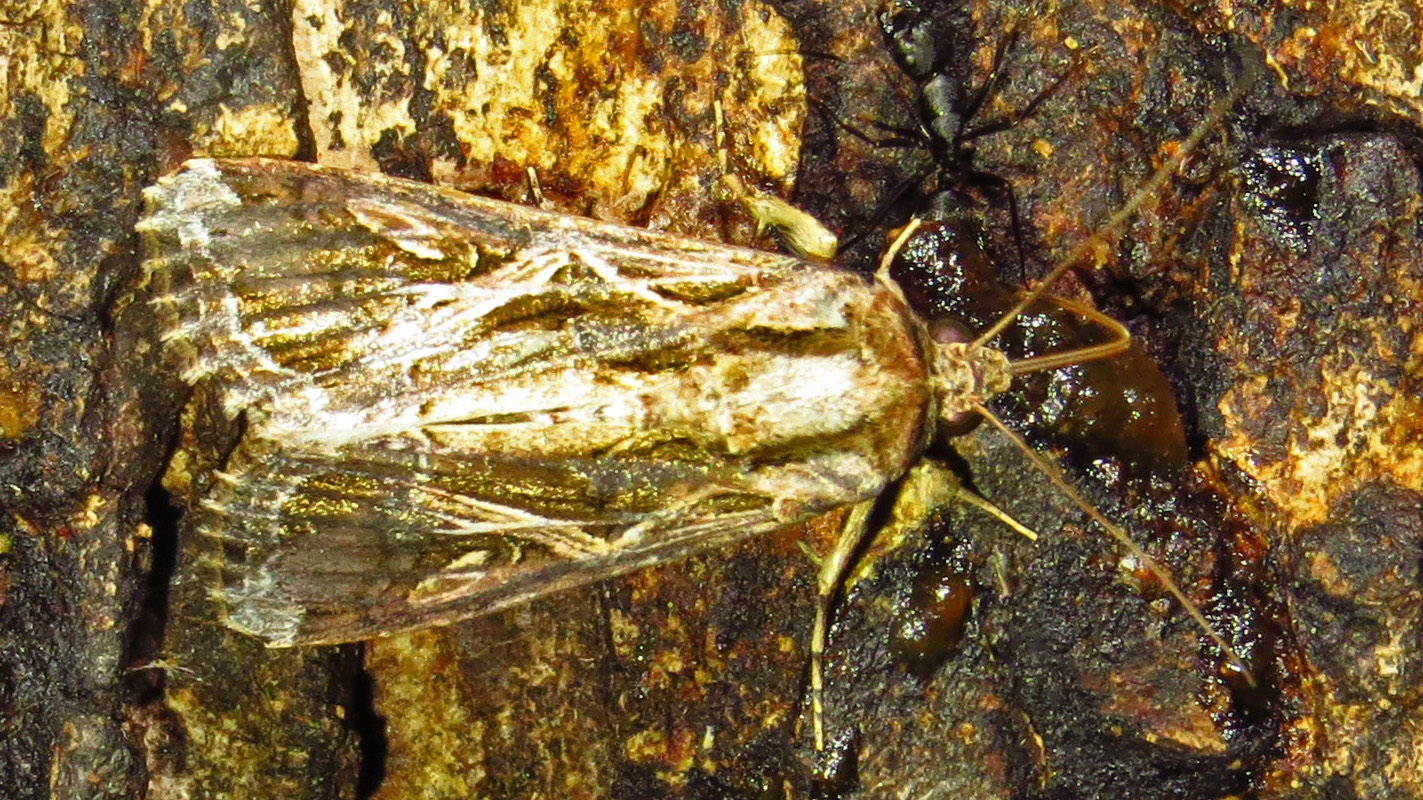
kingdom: Animalia
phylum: Arthropoda
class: Insecta
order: Lepidoptera
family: Noctuidae
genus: Spodoptera
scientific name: Spodoptera dolichos
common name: Sweetpotato armyworm
